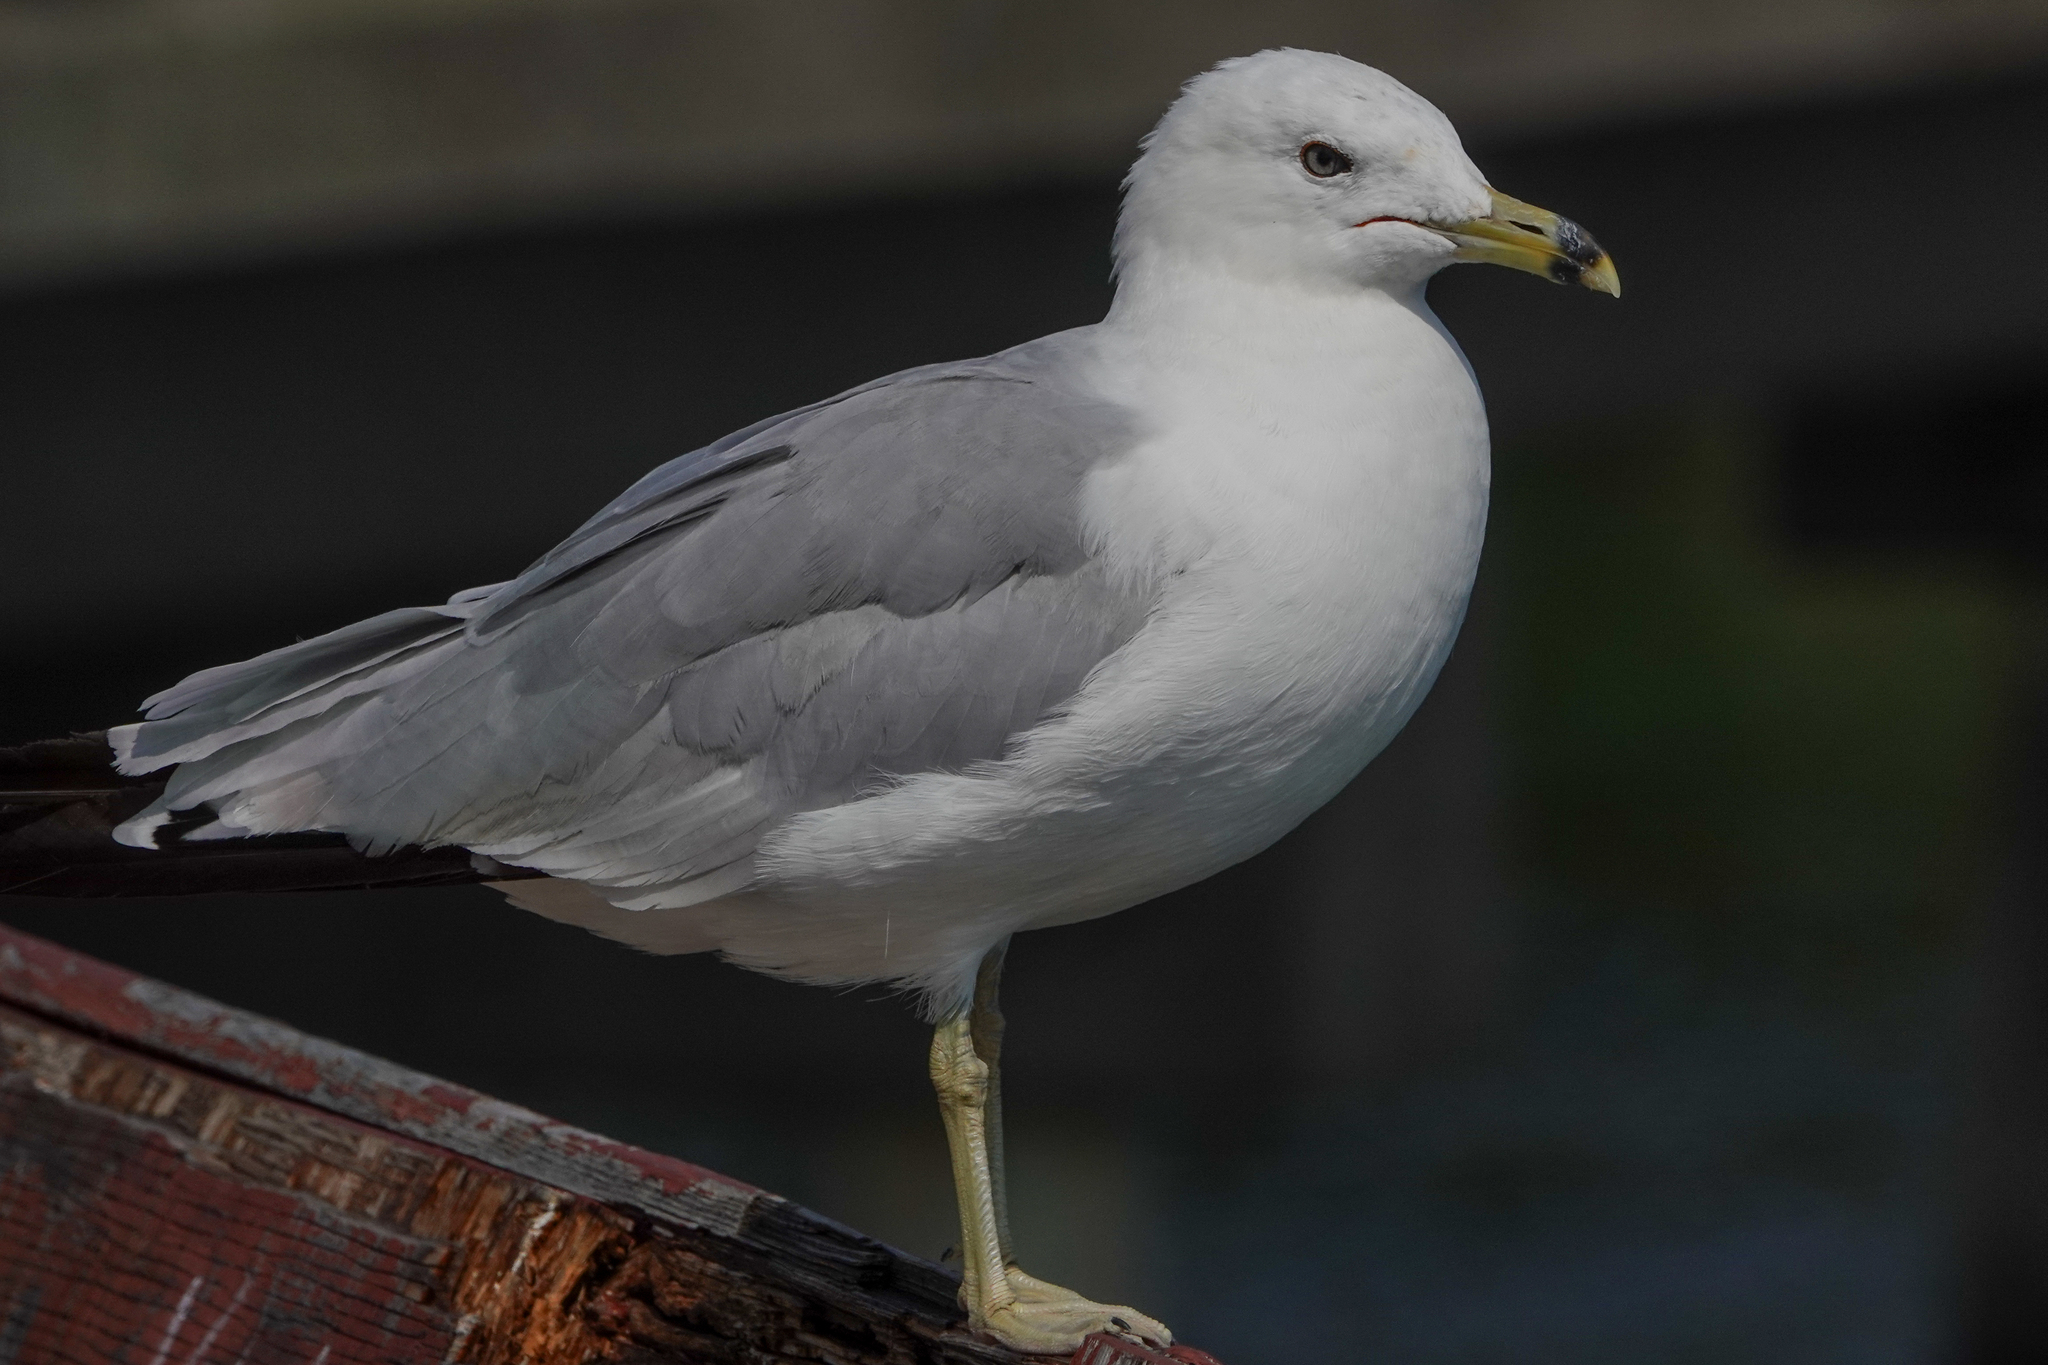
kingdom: Animalia
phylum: Chordata
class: Aves
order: Charadriiformes
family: Laridae
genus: Larus
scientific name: Larus delawarensis
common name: Ring-billed gull
